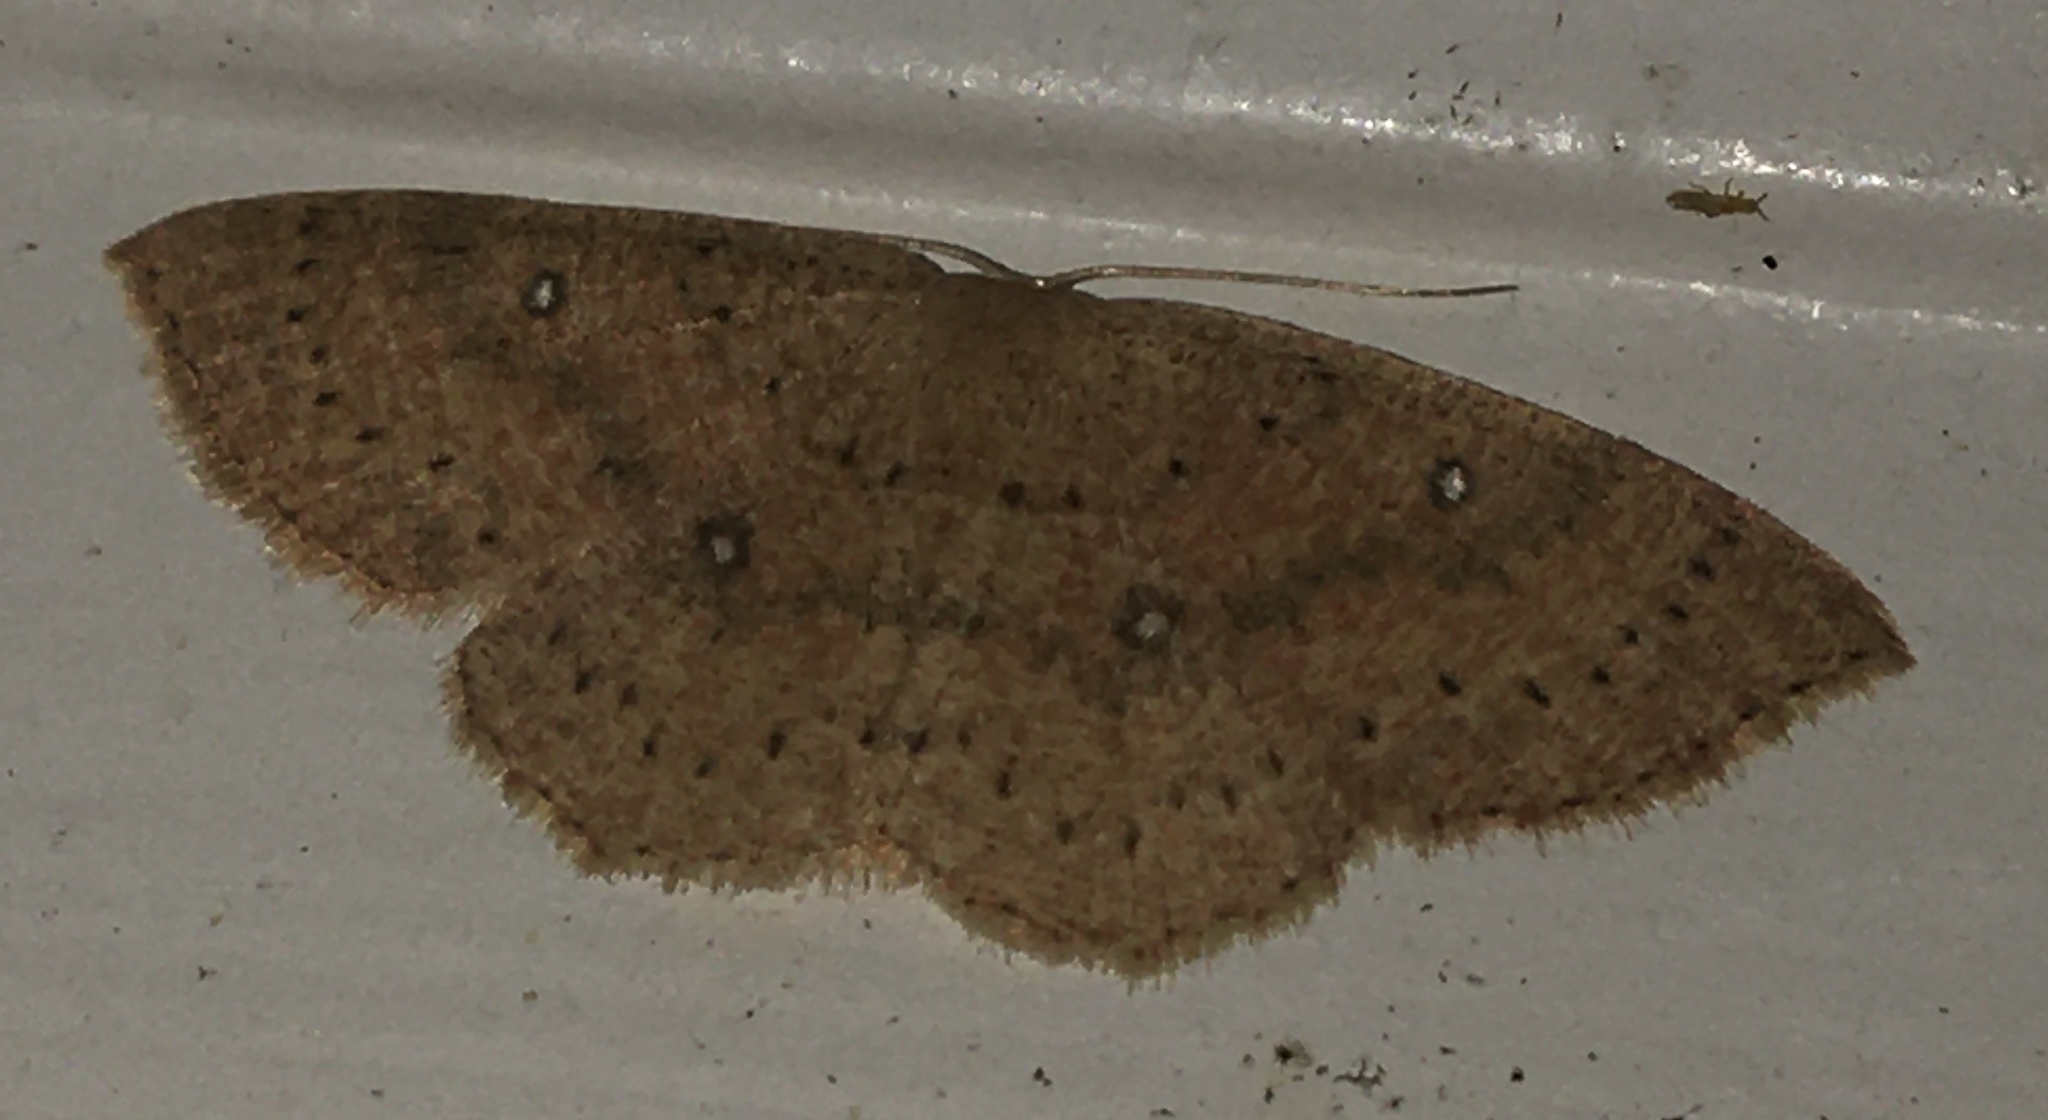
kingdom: Animalia
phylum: Arthropoda
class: Insecta
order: Lepidoptera
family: Geometridae
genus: Cyclophora
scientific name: Cyclophora packardi
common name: Packard's wave
